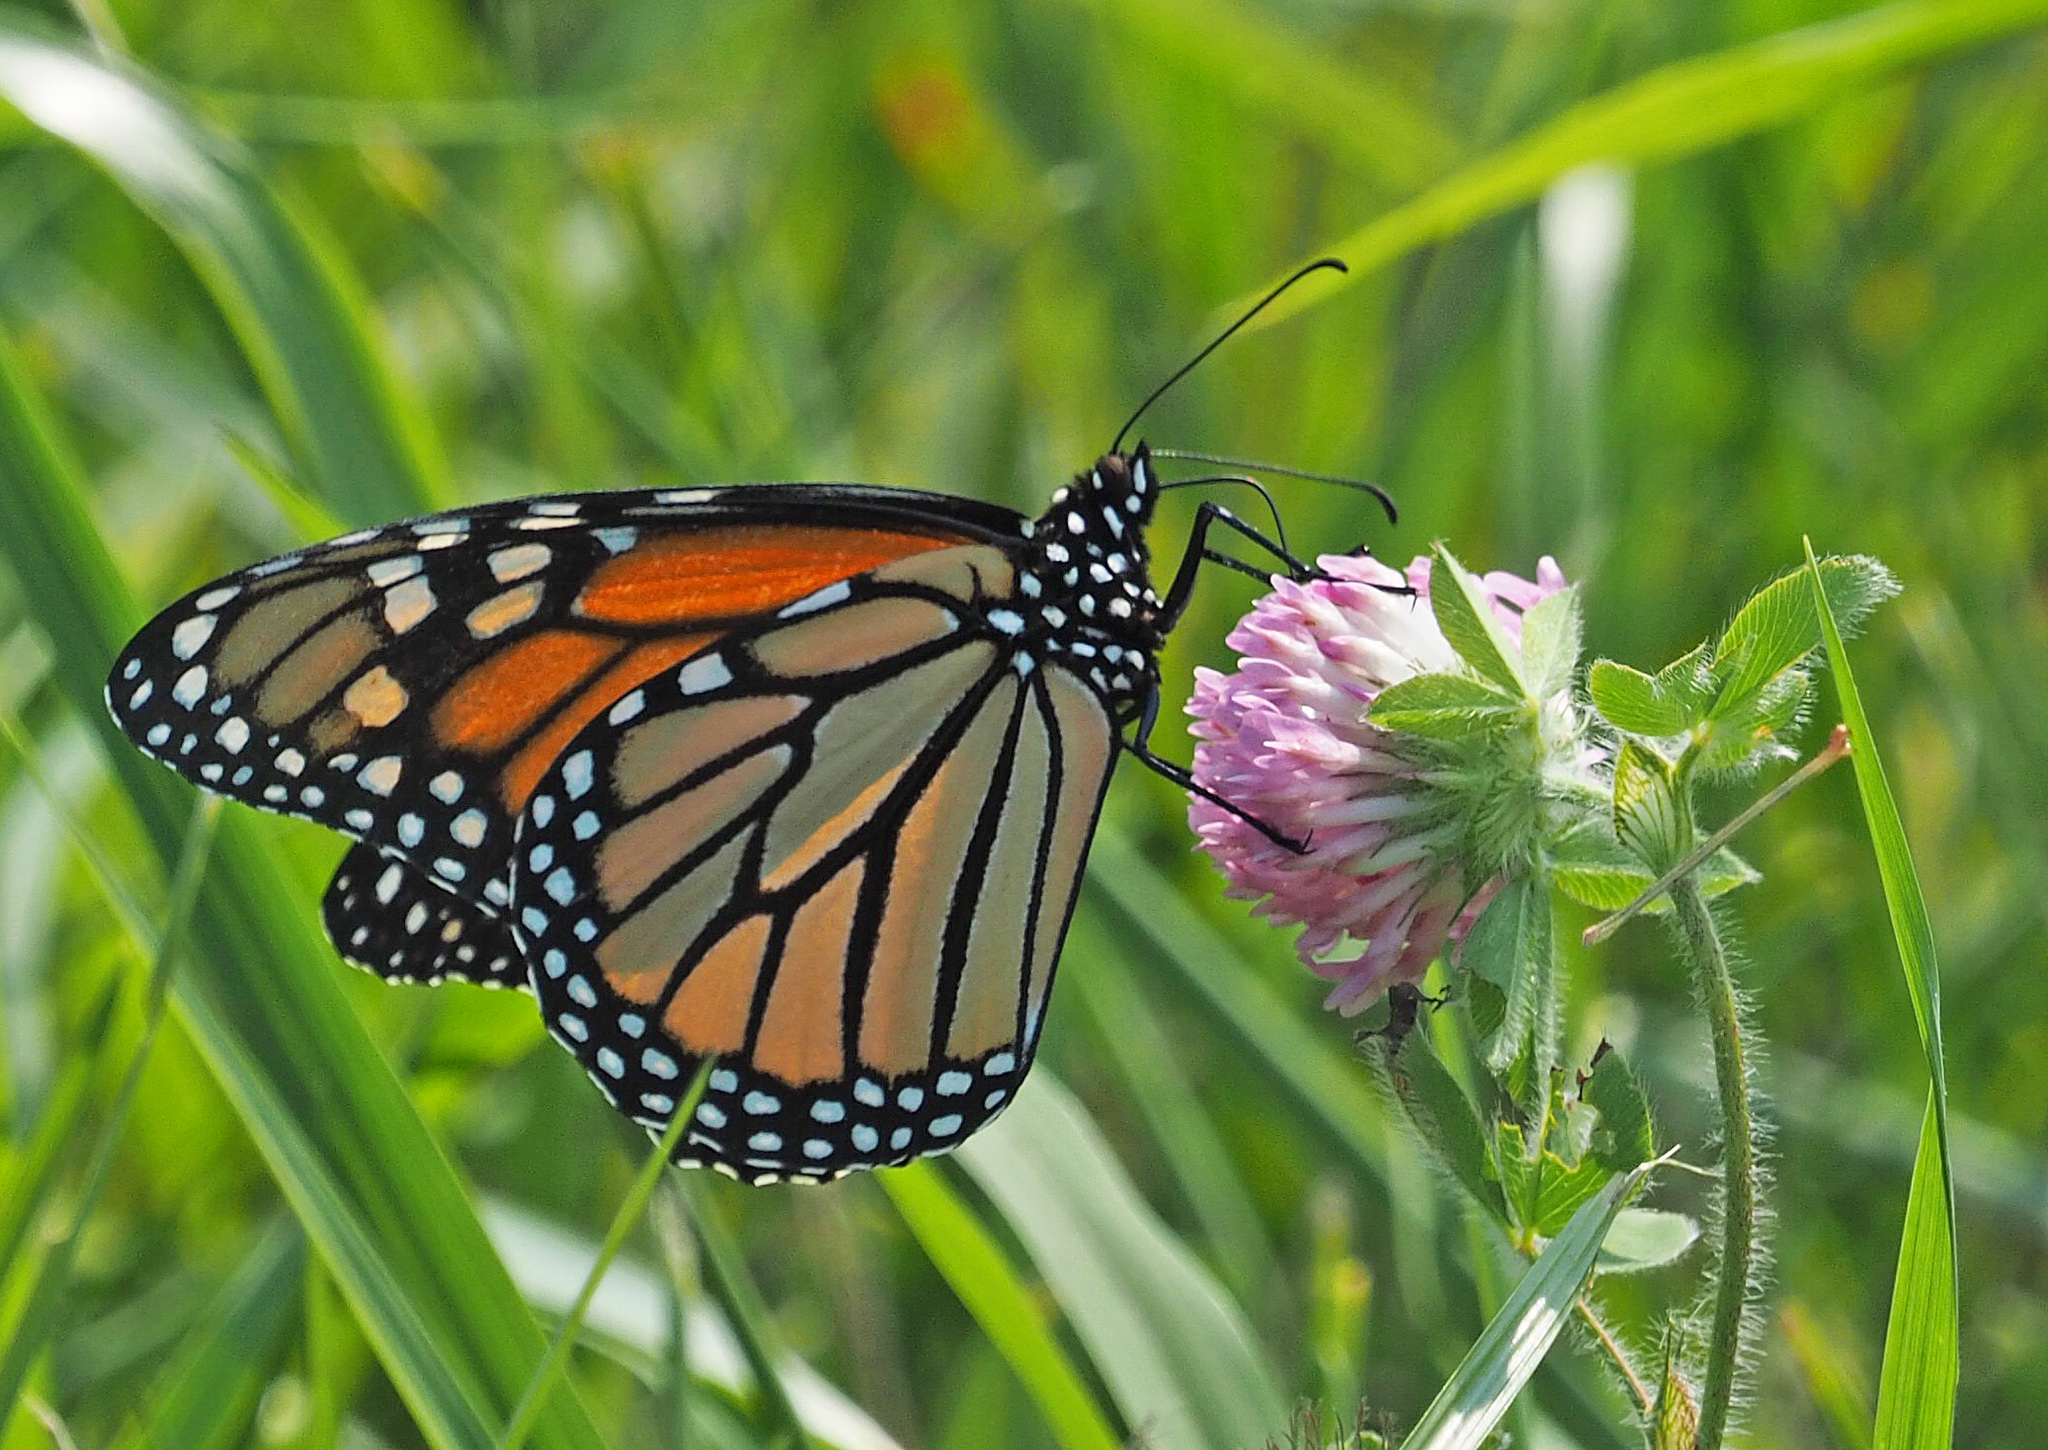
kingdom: Animalia
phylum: Arthropoda
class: Insecta
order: Lepidoptera
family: Nymphalidae
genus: Danaus
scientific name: Danaus plexippus
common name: Monarch
